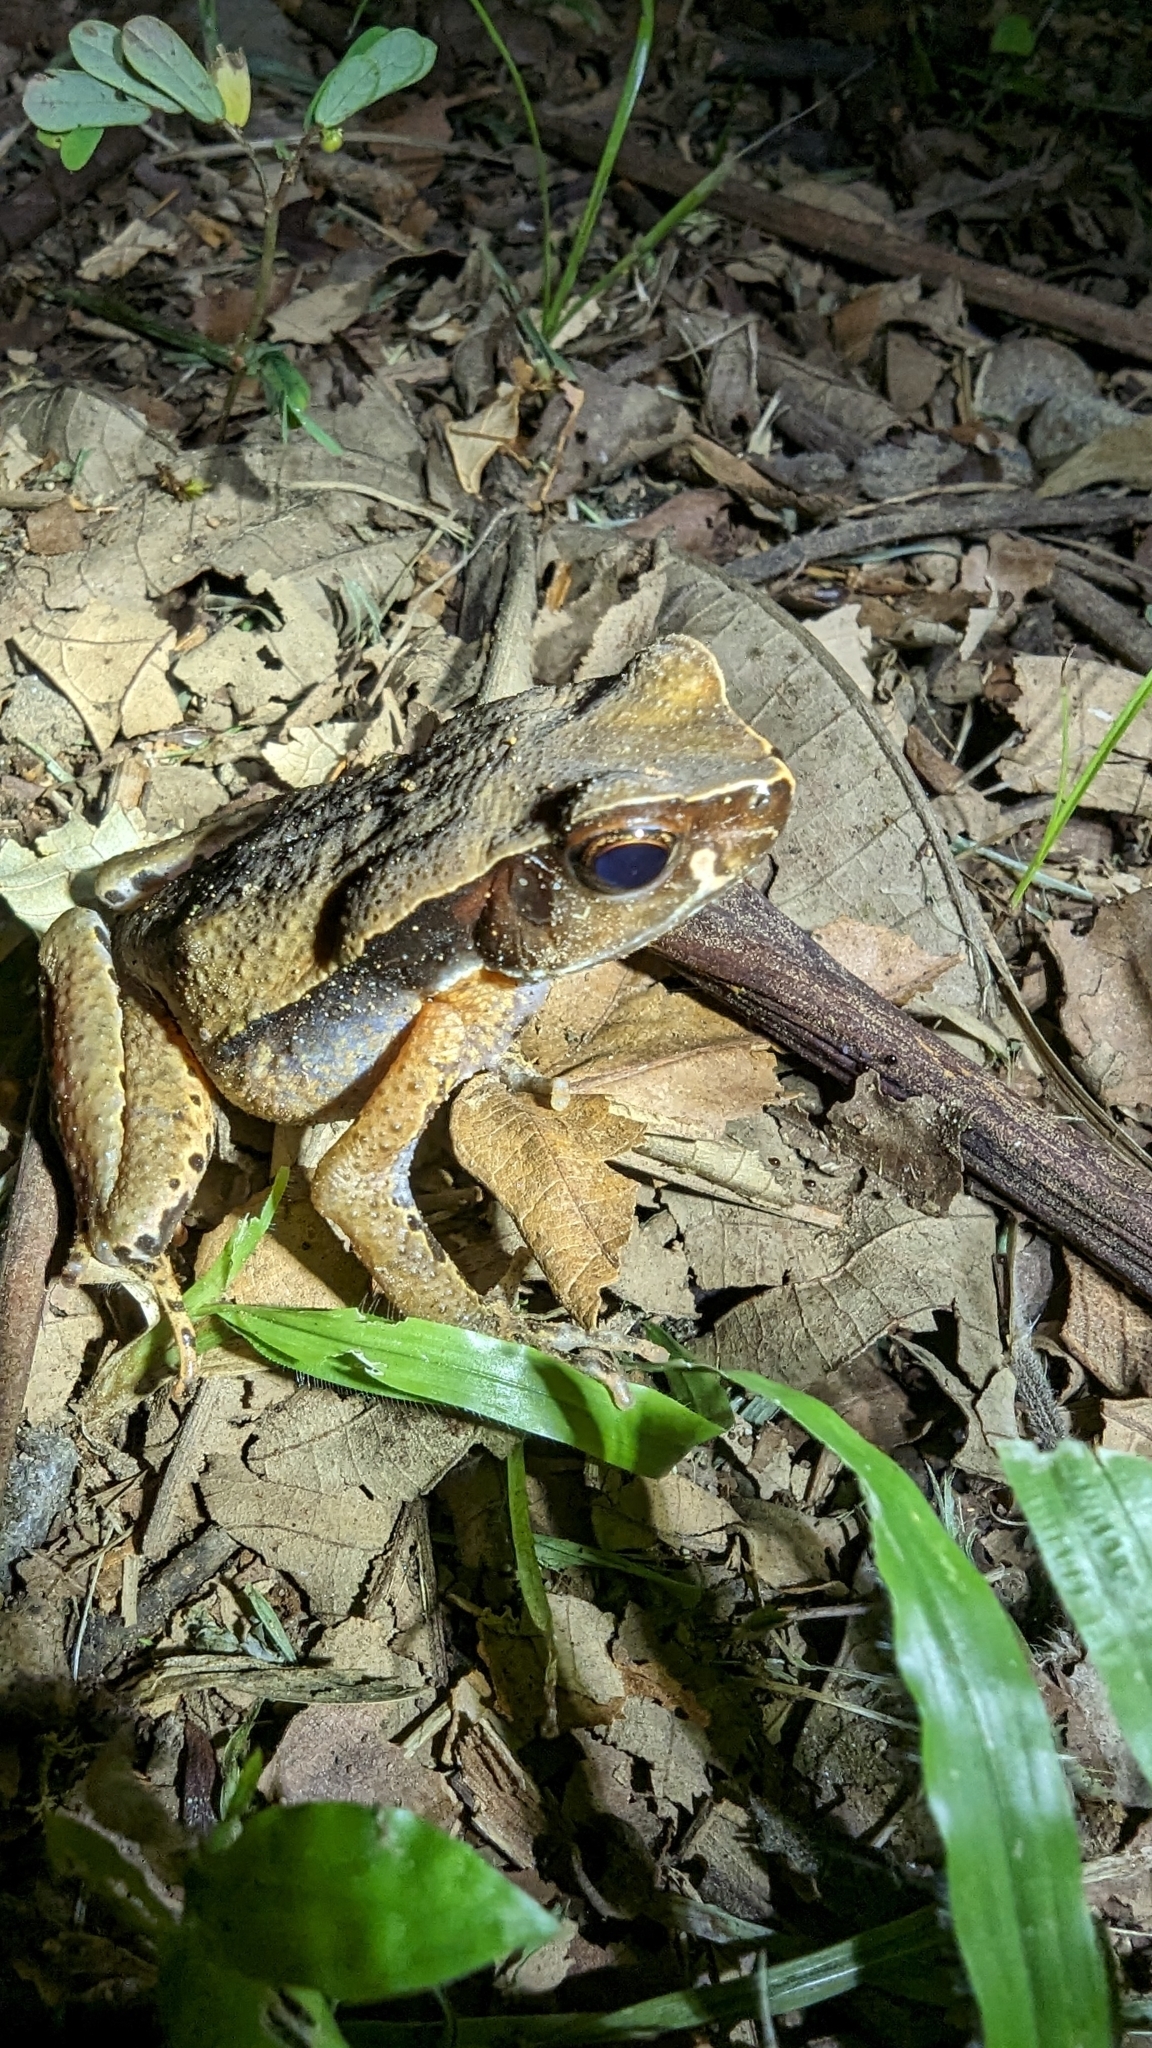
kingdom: Animalia
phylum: Chordata
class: Amphibia
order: Anura
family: Bufonidae
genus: Rhaebo
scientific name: Rhaebo haematiticus
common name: Truando toad
